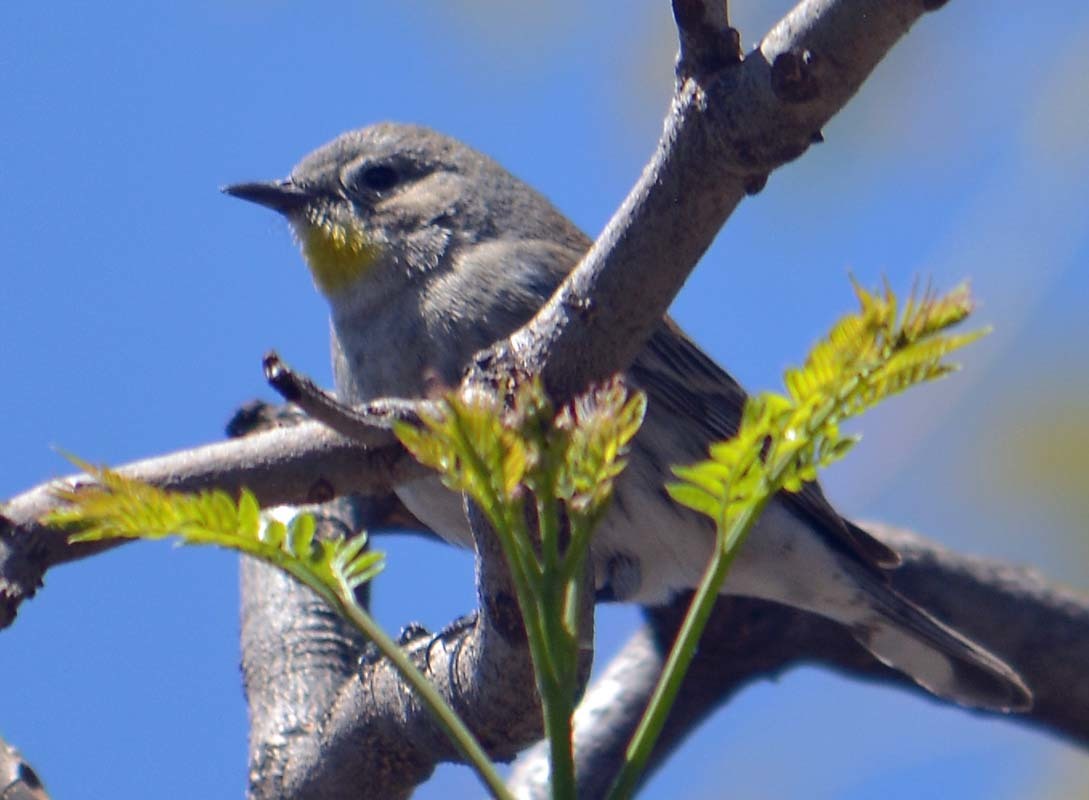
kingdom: Animalia
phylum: Chordata
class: Aves
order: Passeriformes
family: Parulidae
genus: Setophaga
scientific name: Setophaga coronata
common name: Myrtle warbler
